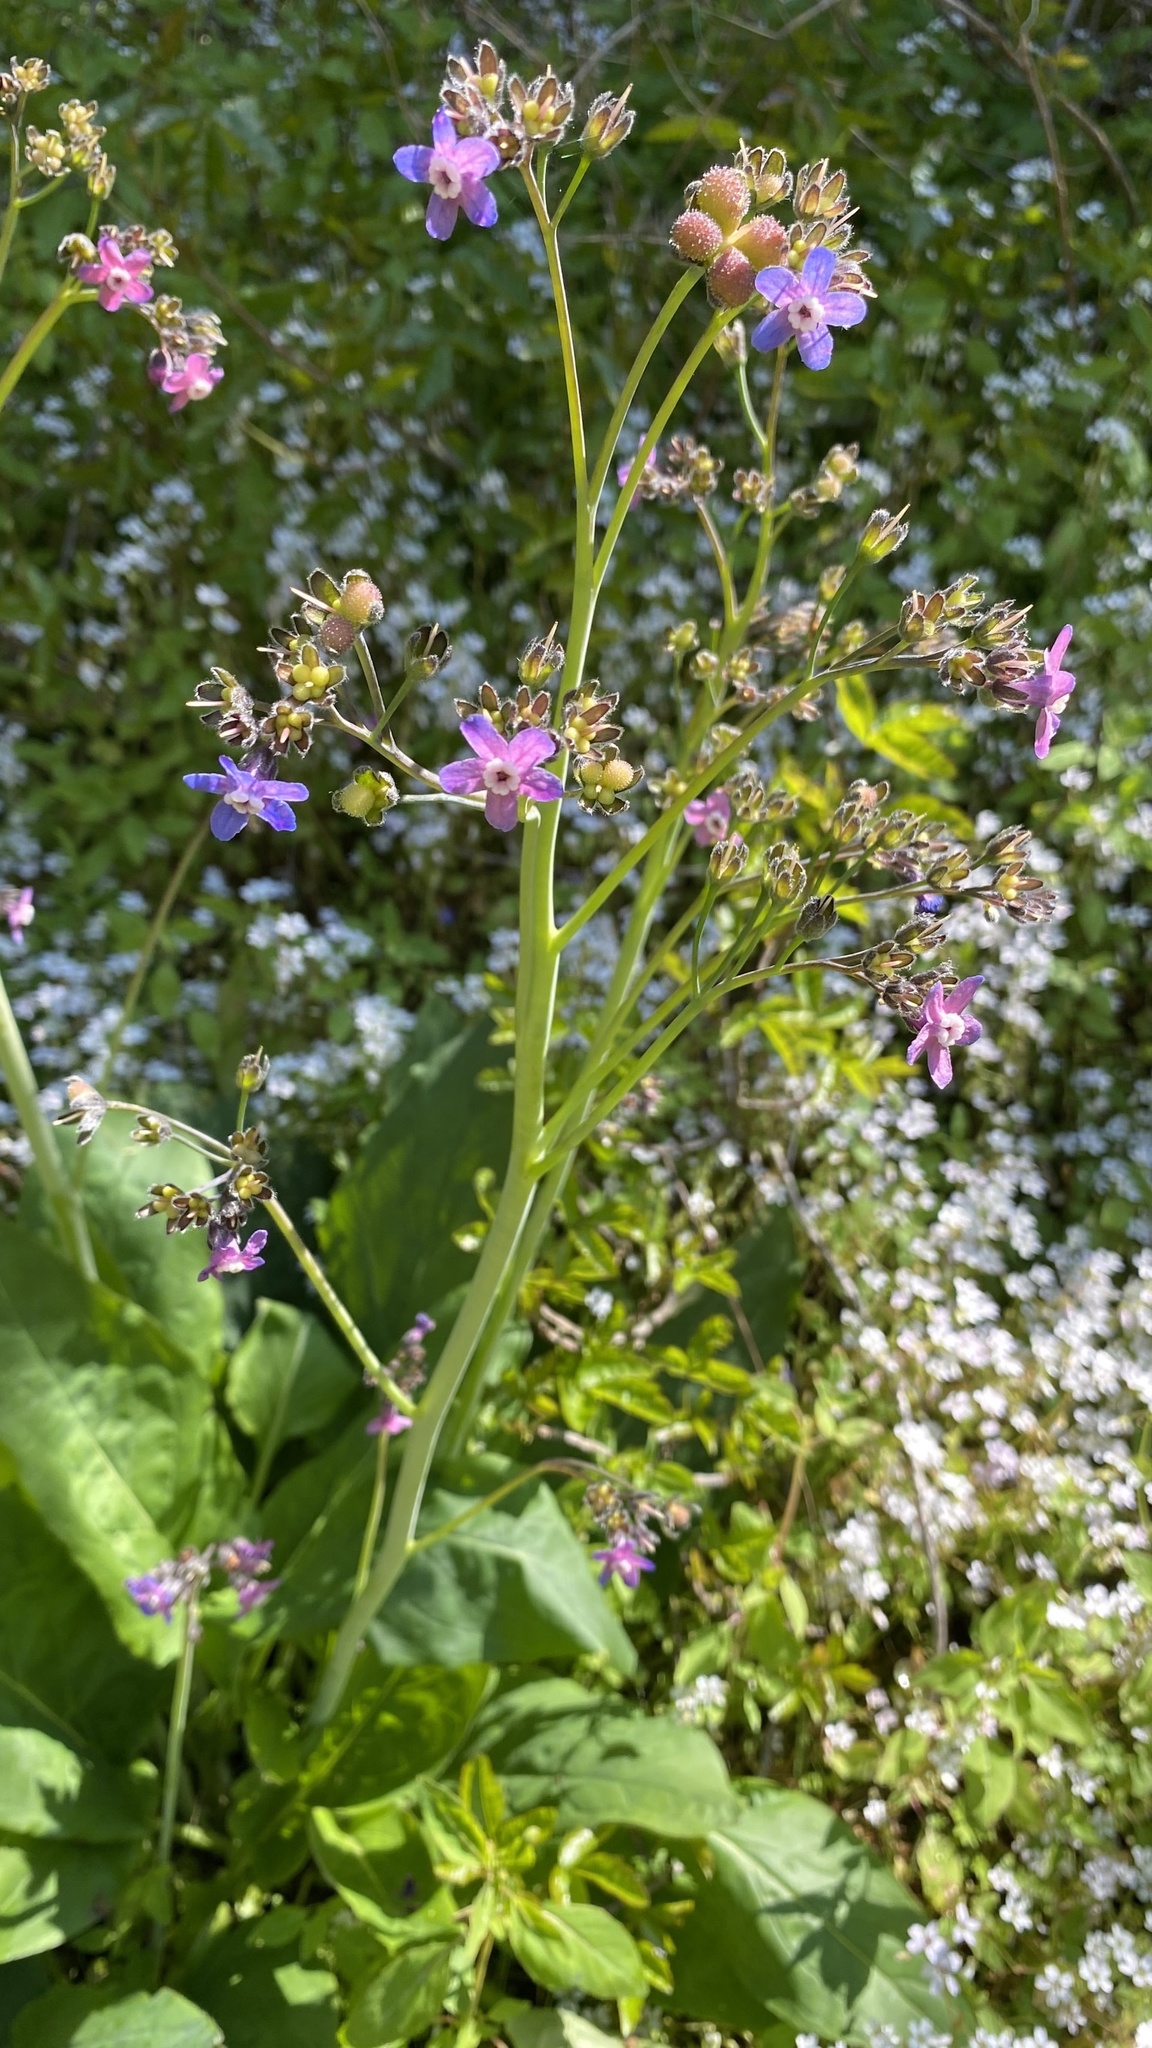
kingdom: Plantae
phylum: Tracheophyta
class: Magnoliopsida
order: Boraginales
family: Boraginaceae
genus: Adelinia
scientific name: Adelinia grande
